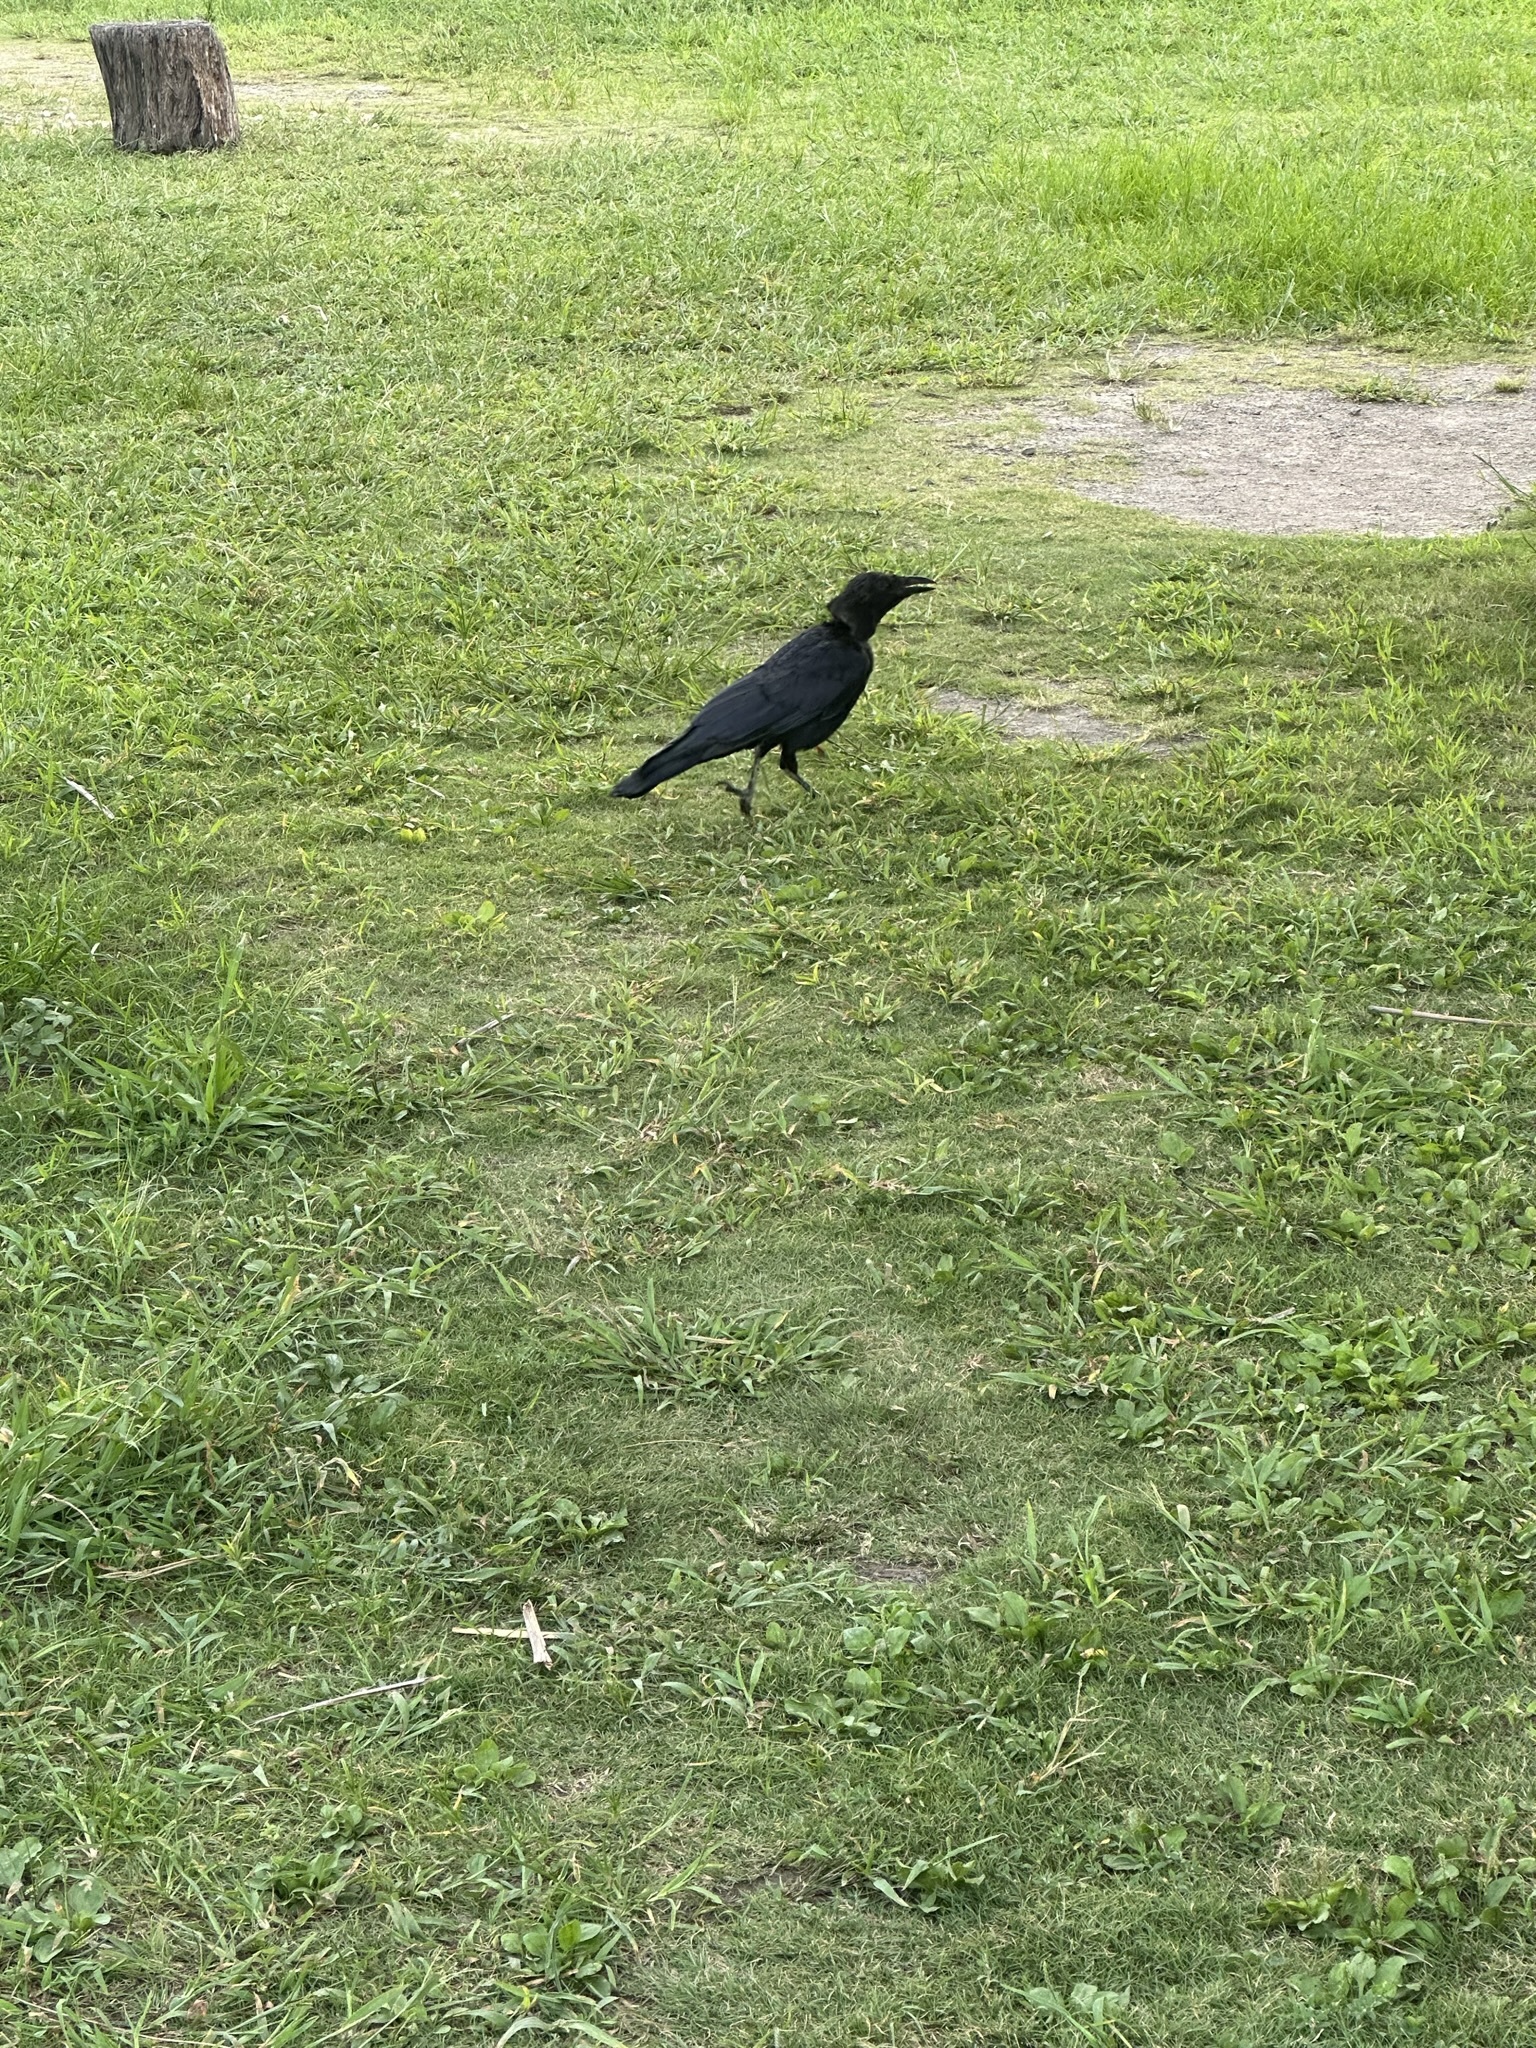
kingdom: Animalia
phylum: Chordata
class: Aves
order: Passeriformes
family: Corvidae
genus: Corvus
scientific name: Corvus corone
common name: Carrion crow
